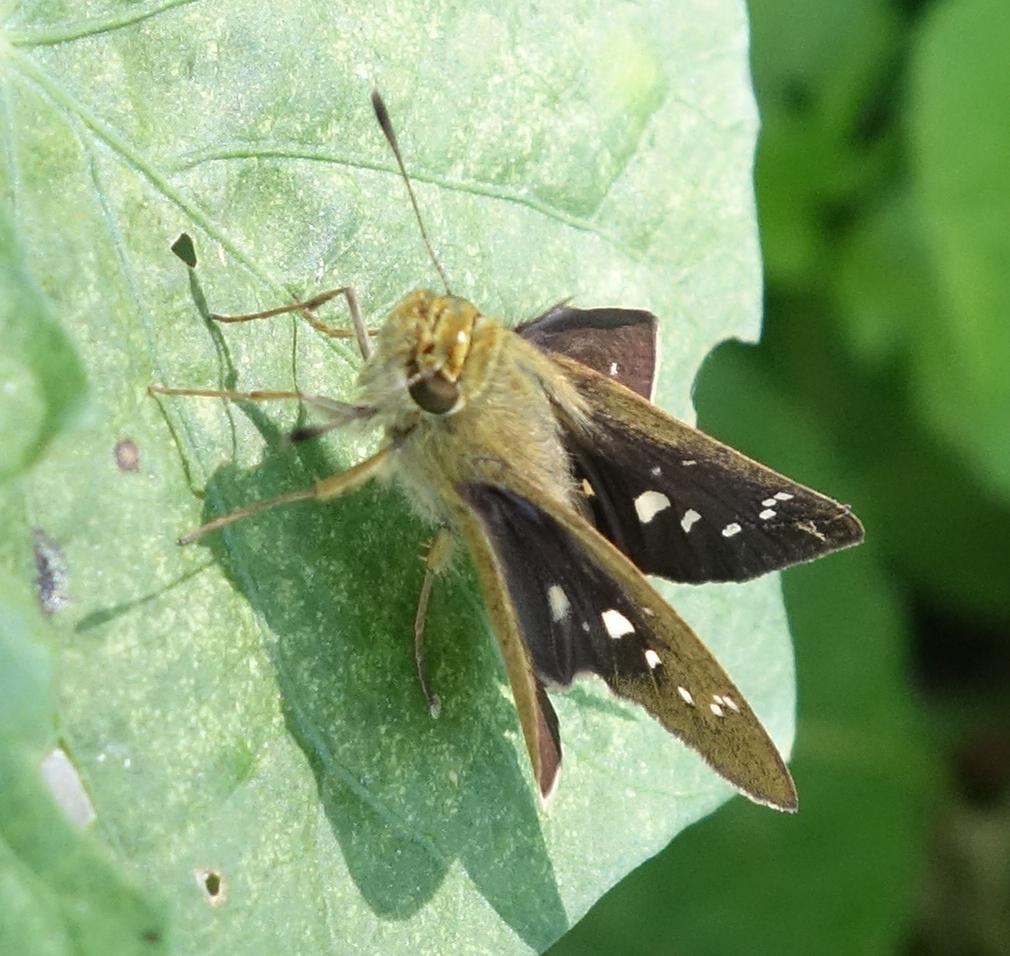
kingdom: Animalia
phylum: Arthropoda
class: Insecta
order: Lepidoptera
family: Hesperiidae
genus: Borbo
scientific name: Borbo cinnara
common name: Formosan swift
